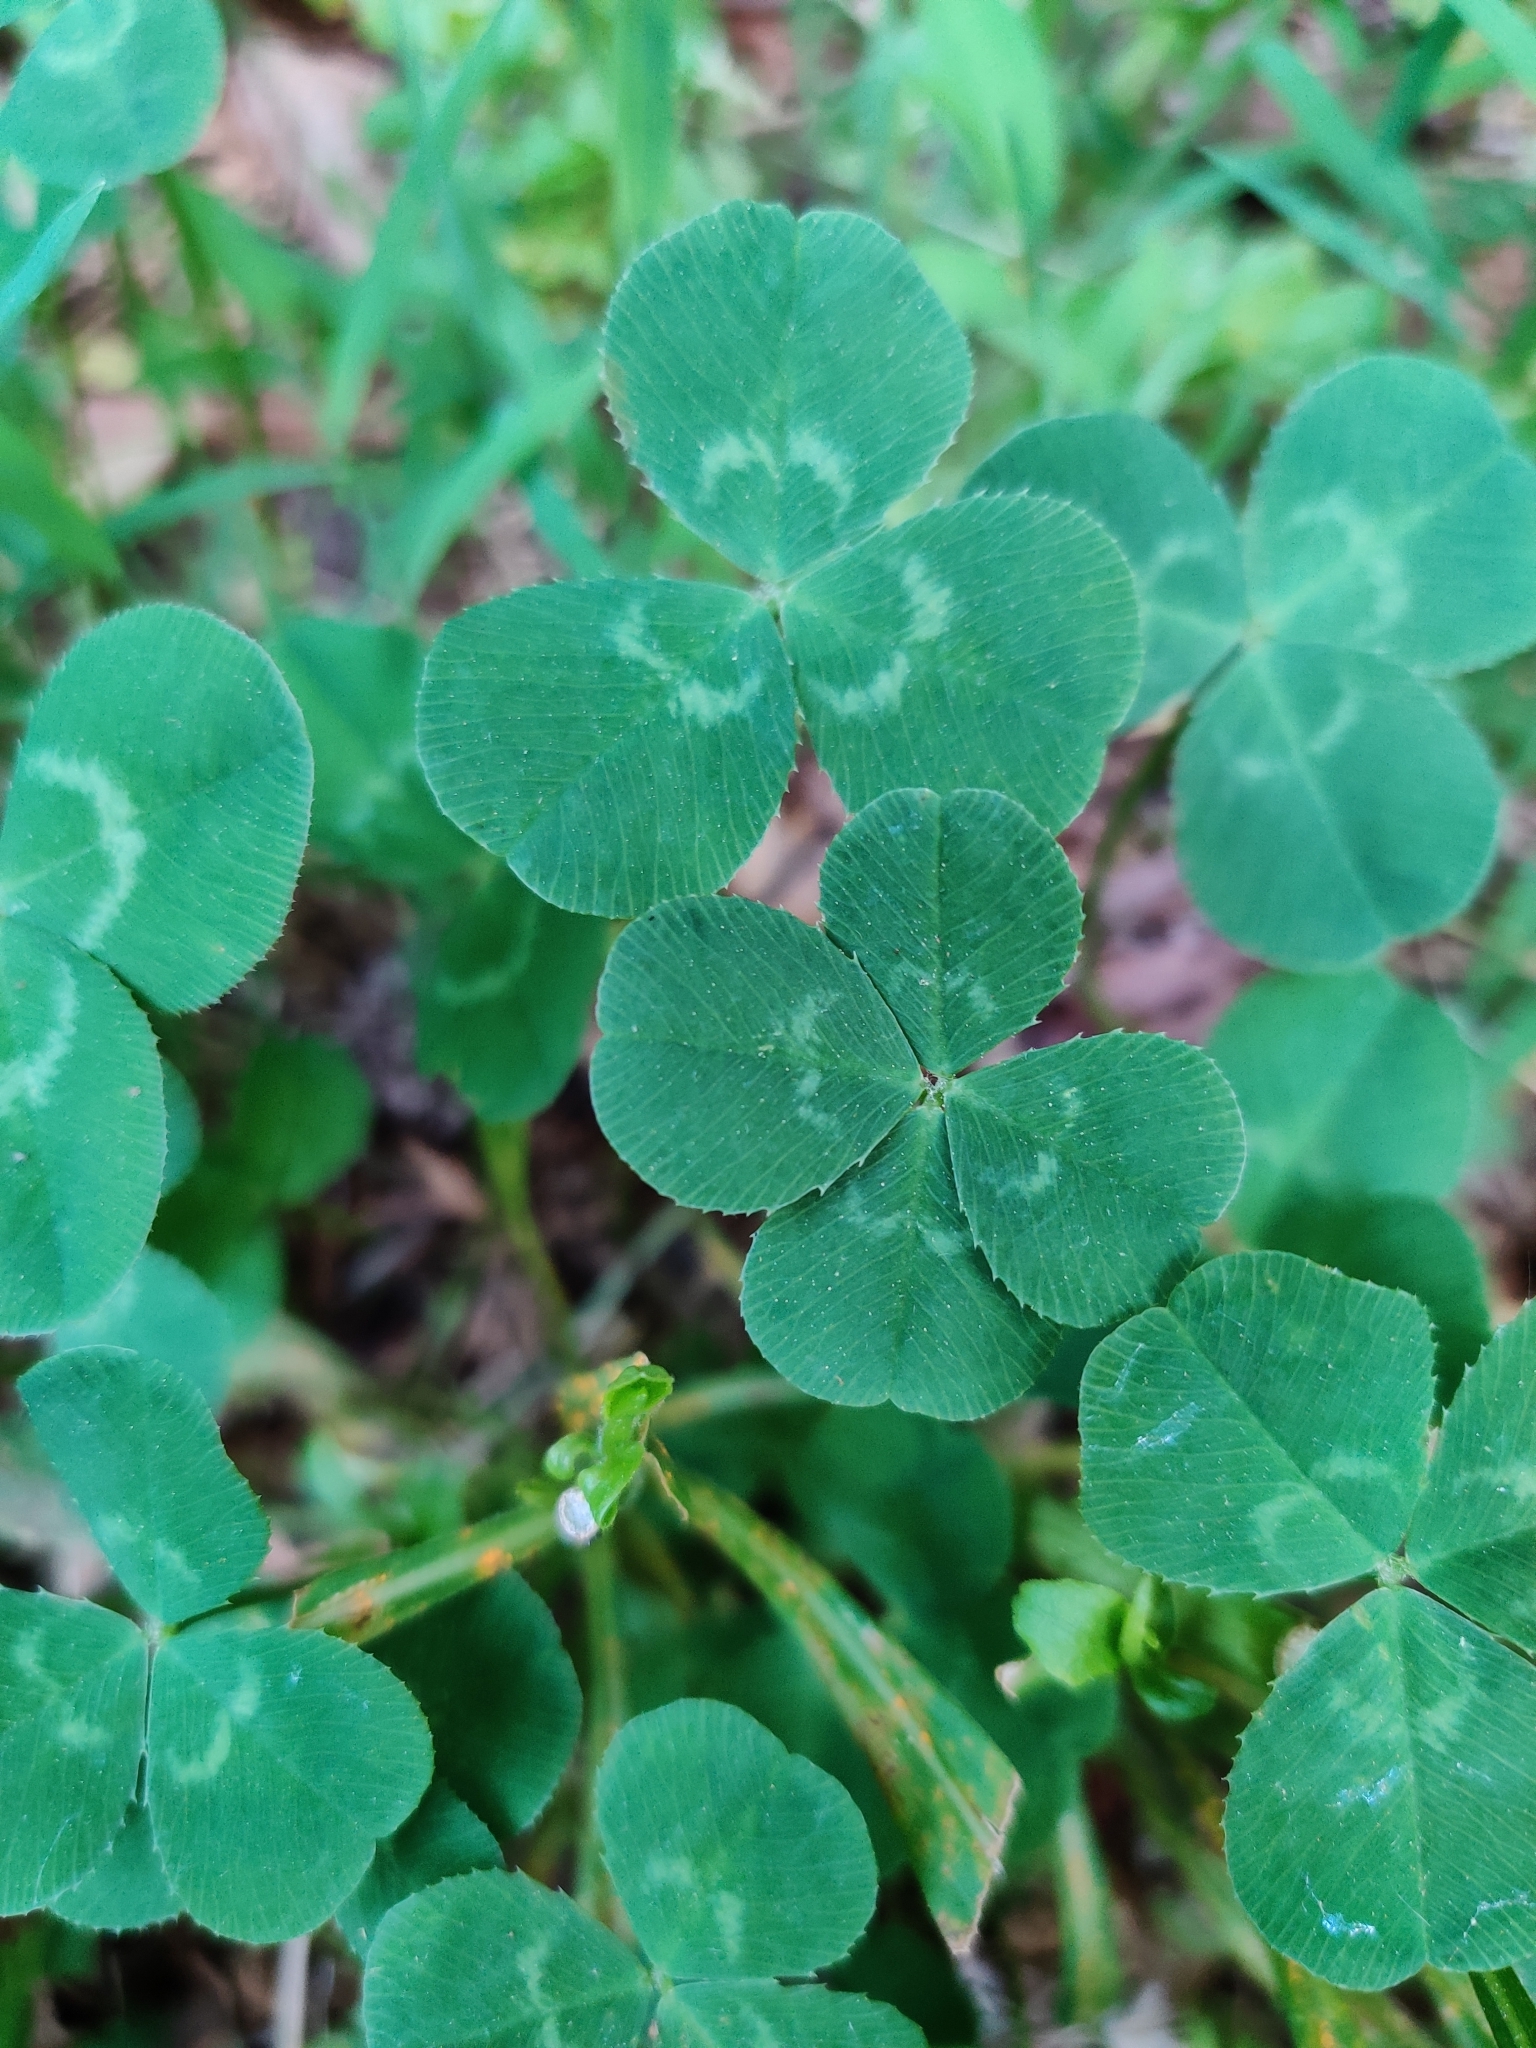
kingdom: Plantae
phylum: Tracheophyta
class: Magnoliopsida
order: Fabales
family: Fabaceae
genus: Trifolium
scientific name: Trifolium repens
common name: White clover
